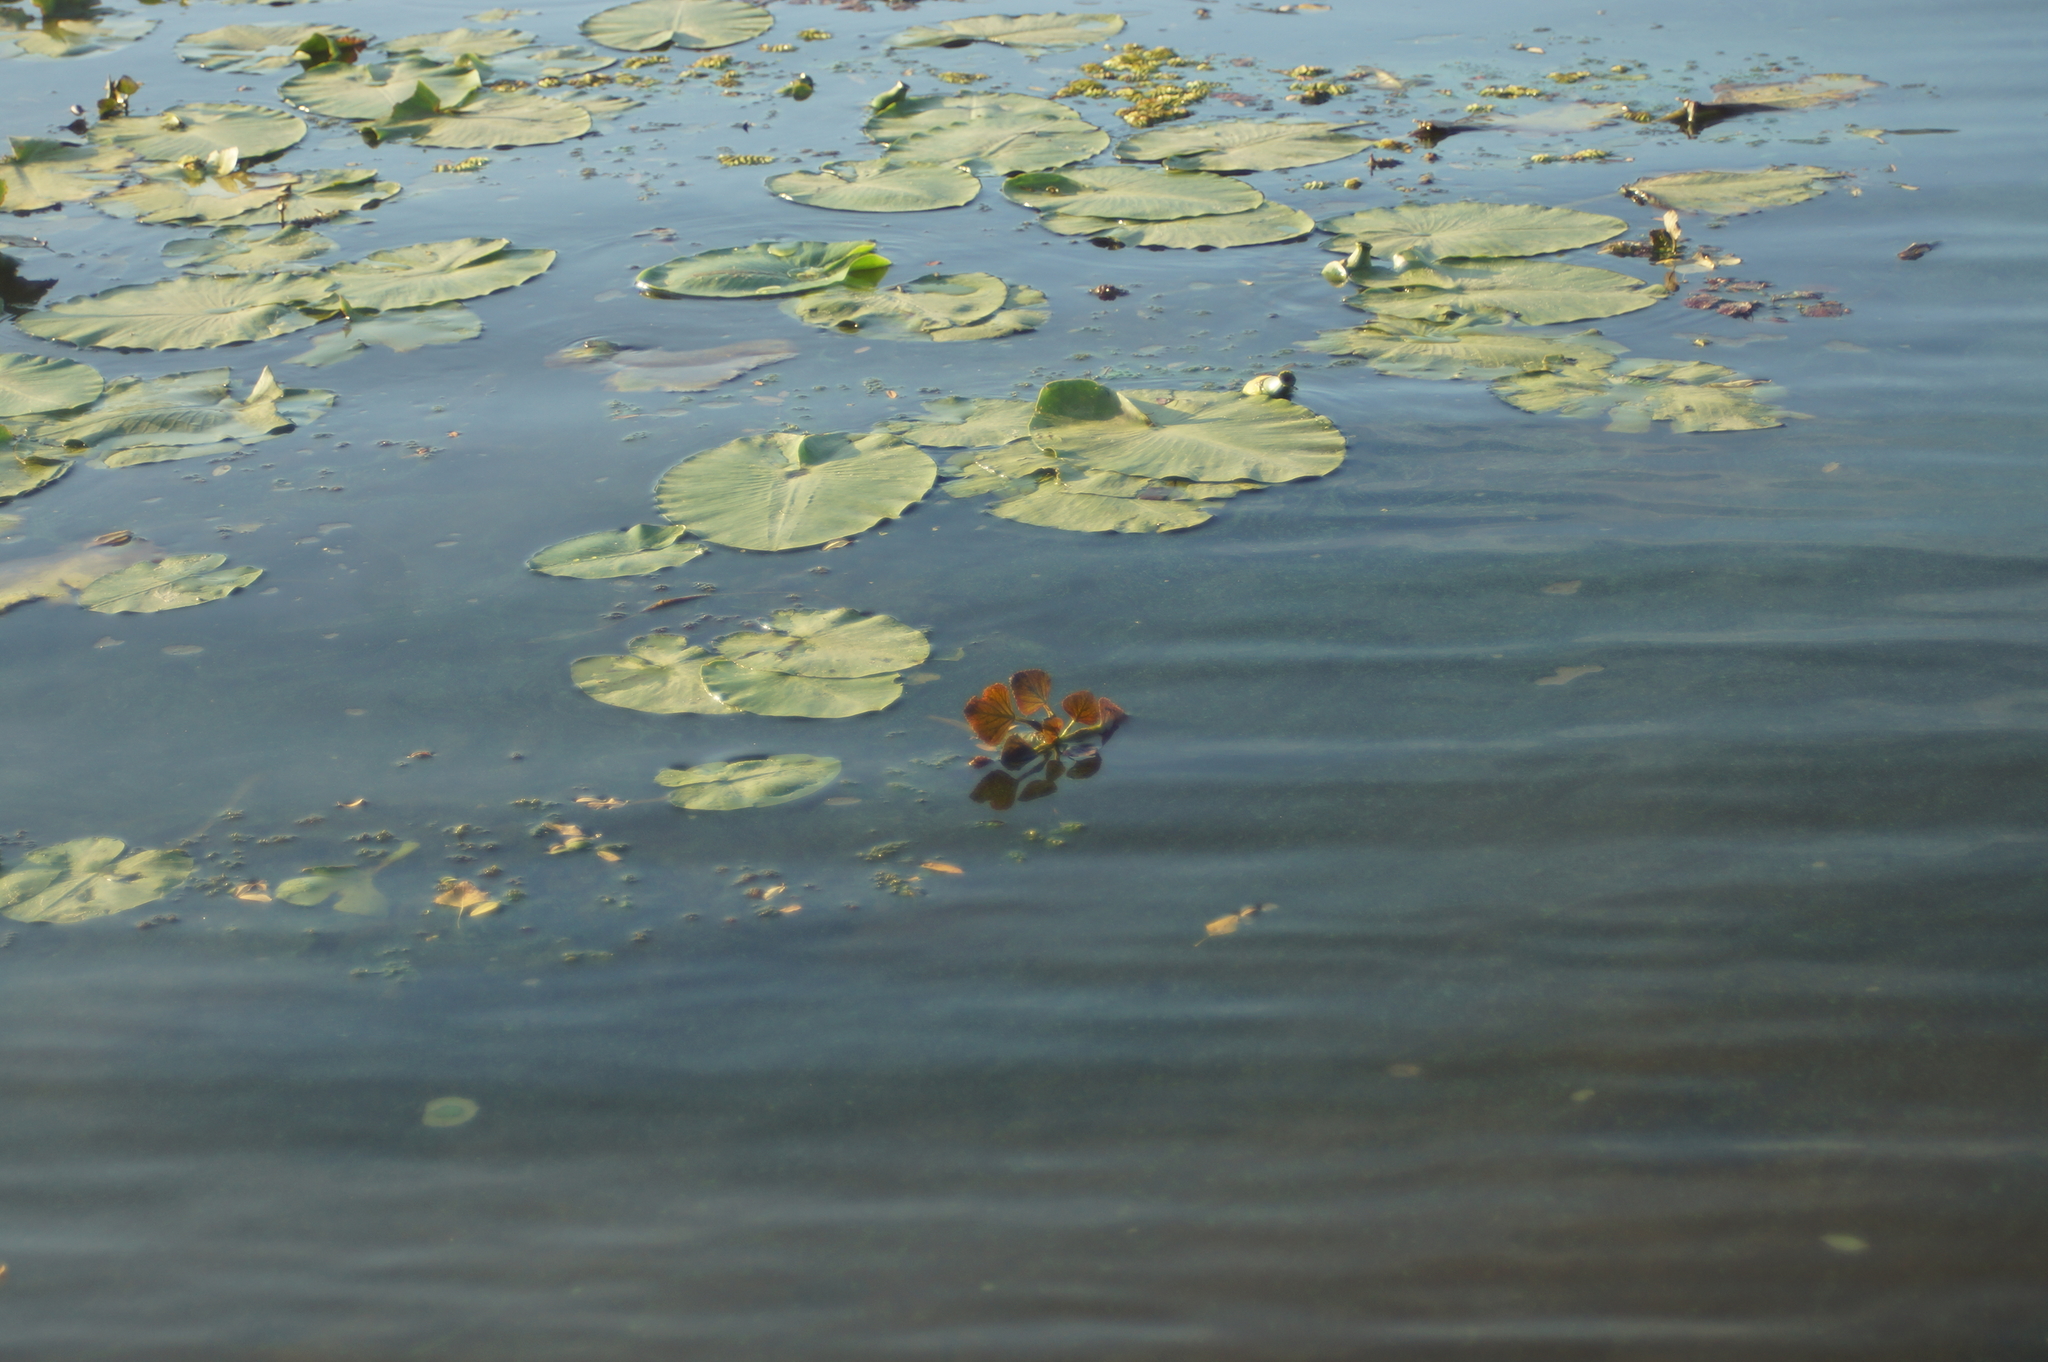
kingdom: Plantae
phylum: Tracheophyta
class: Magnoliopsida
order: Nymphaeales
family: Nymphaeaceae
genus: Nuphar
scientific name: Nuphar lutea
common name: Yellow water-lily
